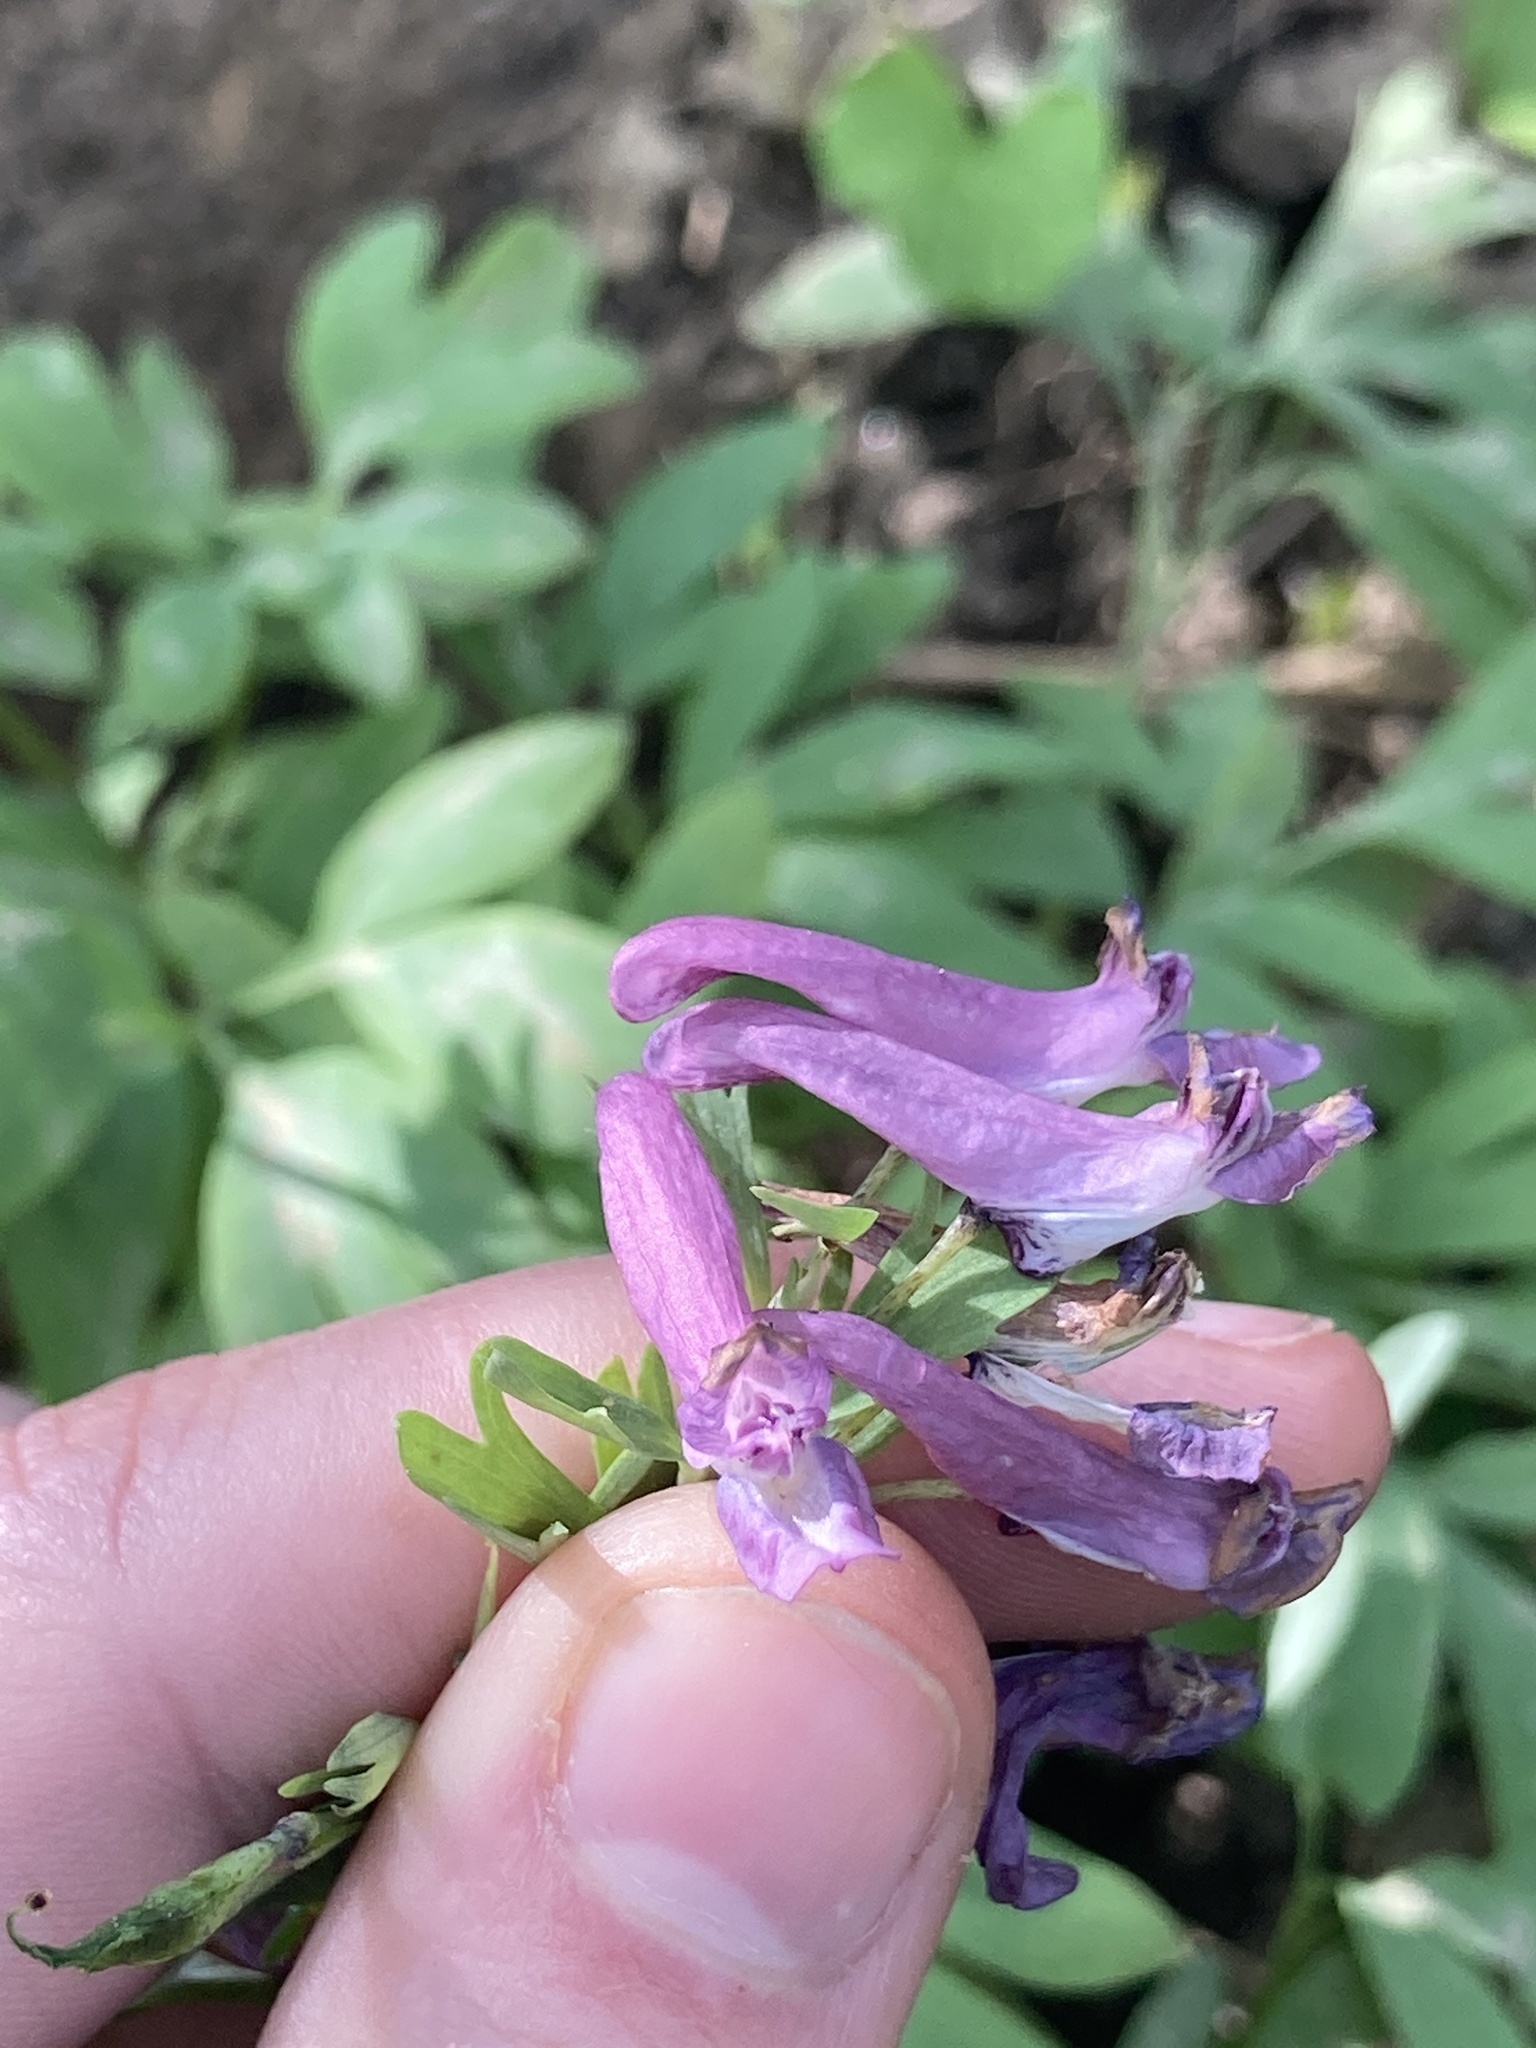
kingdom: Plantae
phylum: Tracheophyta
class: Magnoliopsida
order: Ranunculales
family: Papaveraceae
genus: Corydalis
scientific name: Corydalis solida
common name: Bird-in-a-bush
